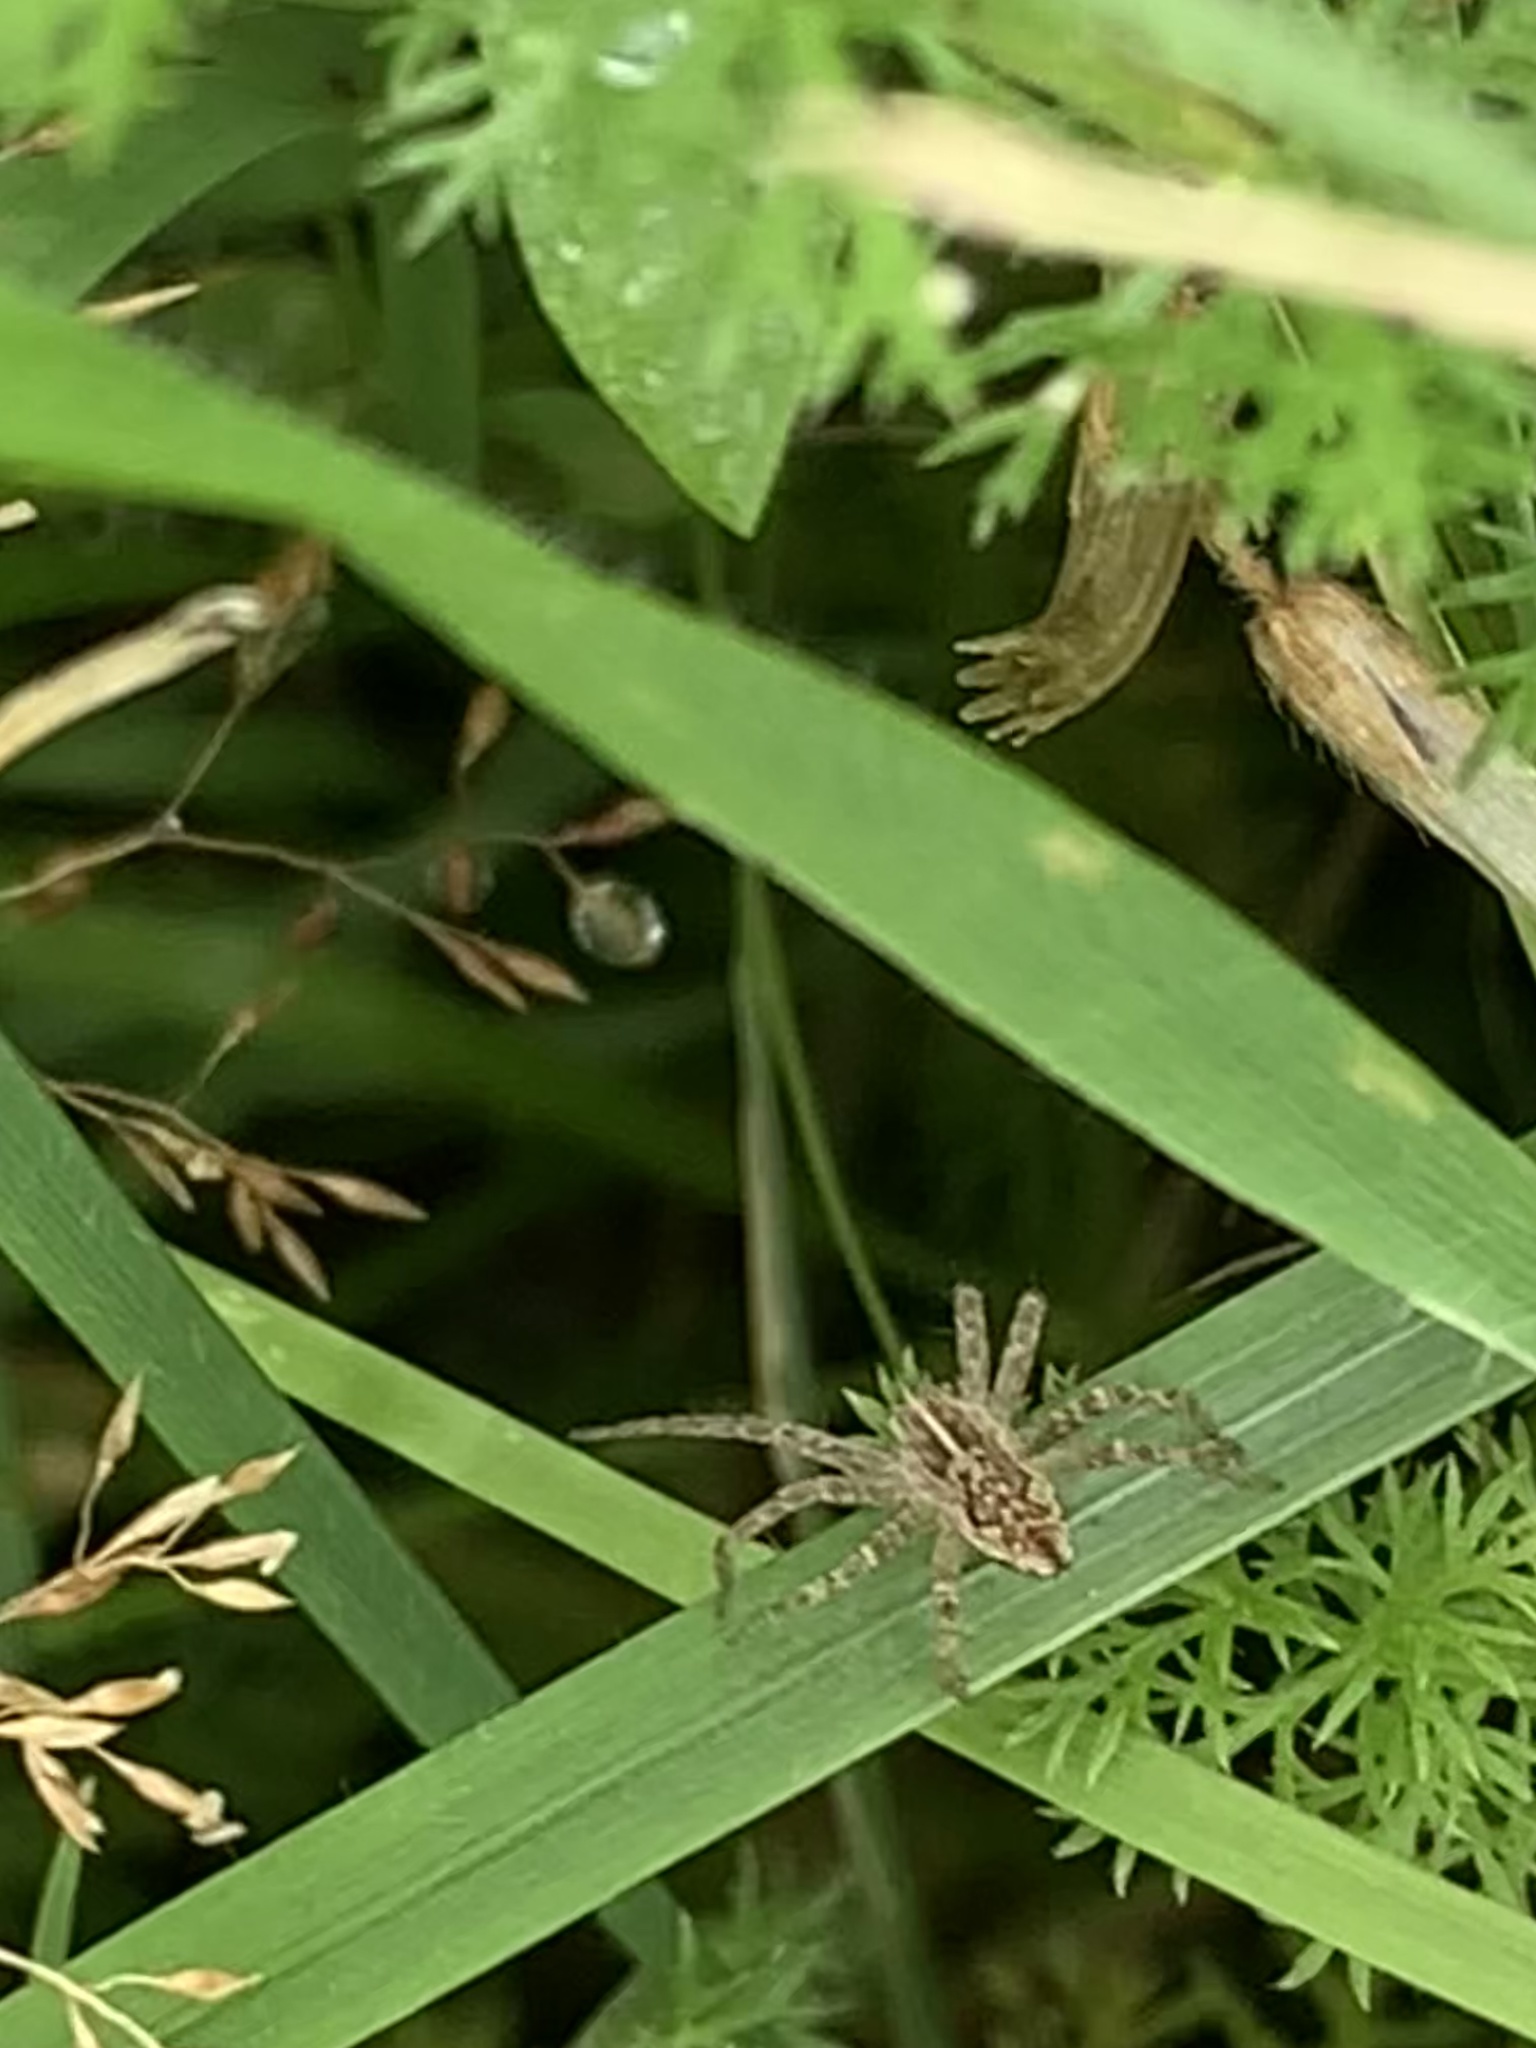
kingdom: Animalia
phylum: Arthropoda
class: Arachnida
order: Araneae
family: Pisauridae
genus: Pisaura
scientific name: Pisaura mirabilis
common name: Tent spider
